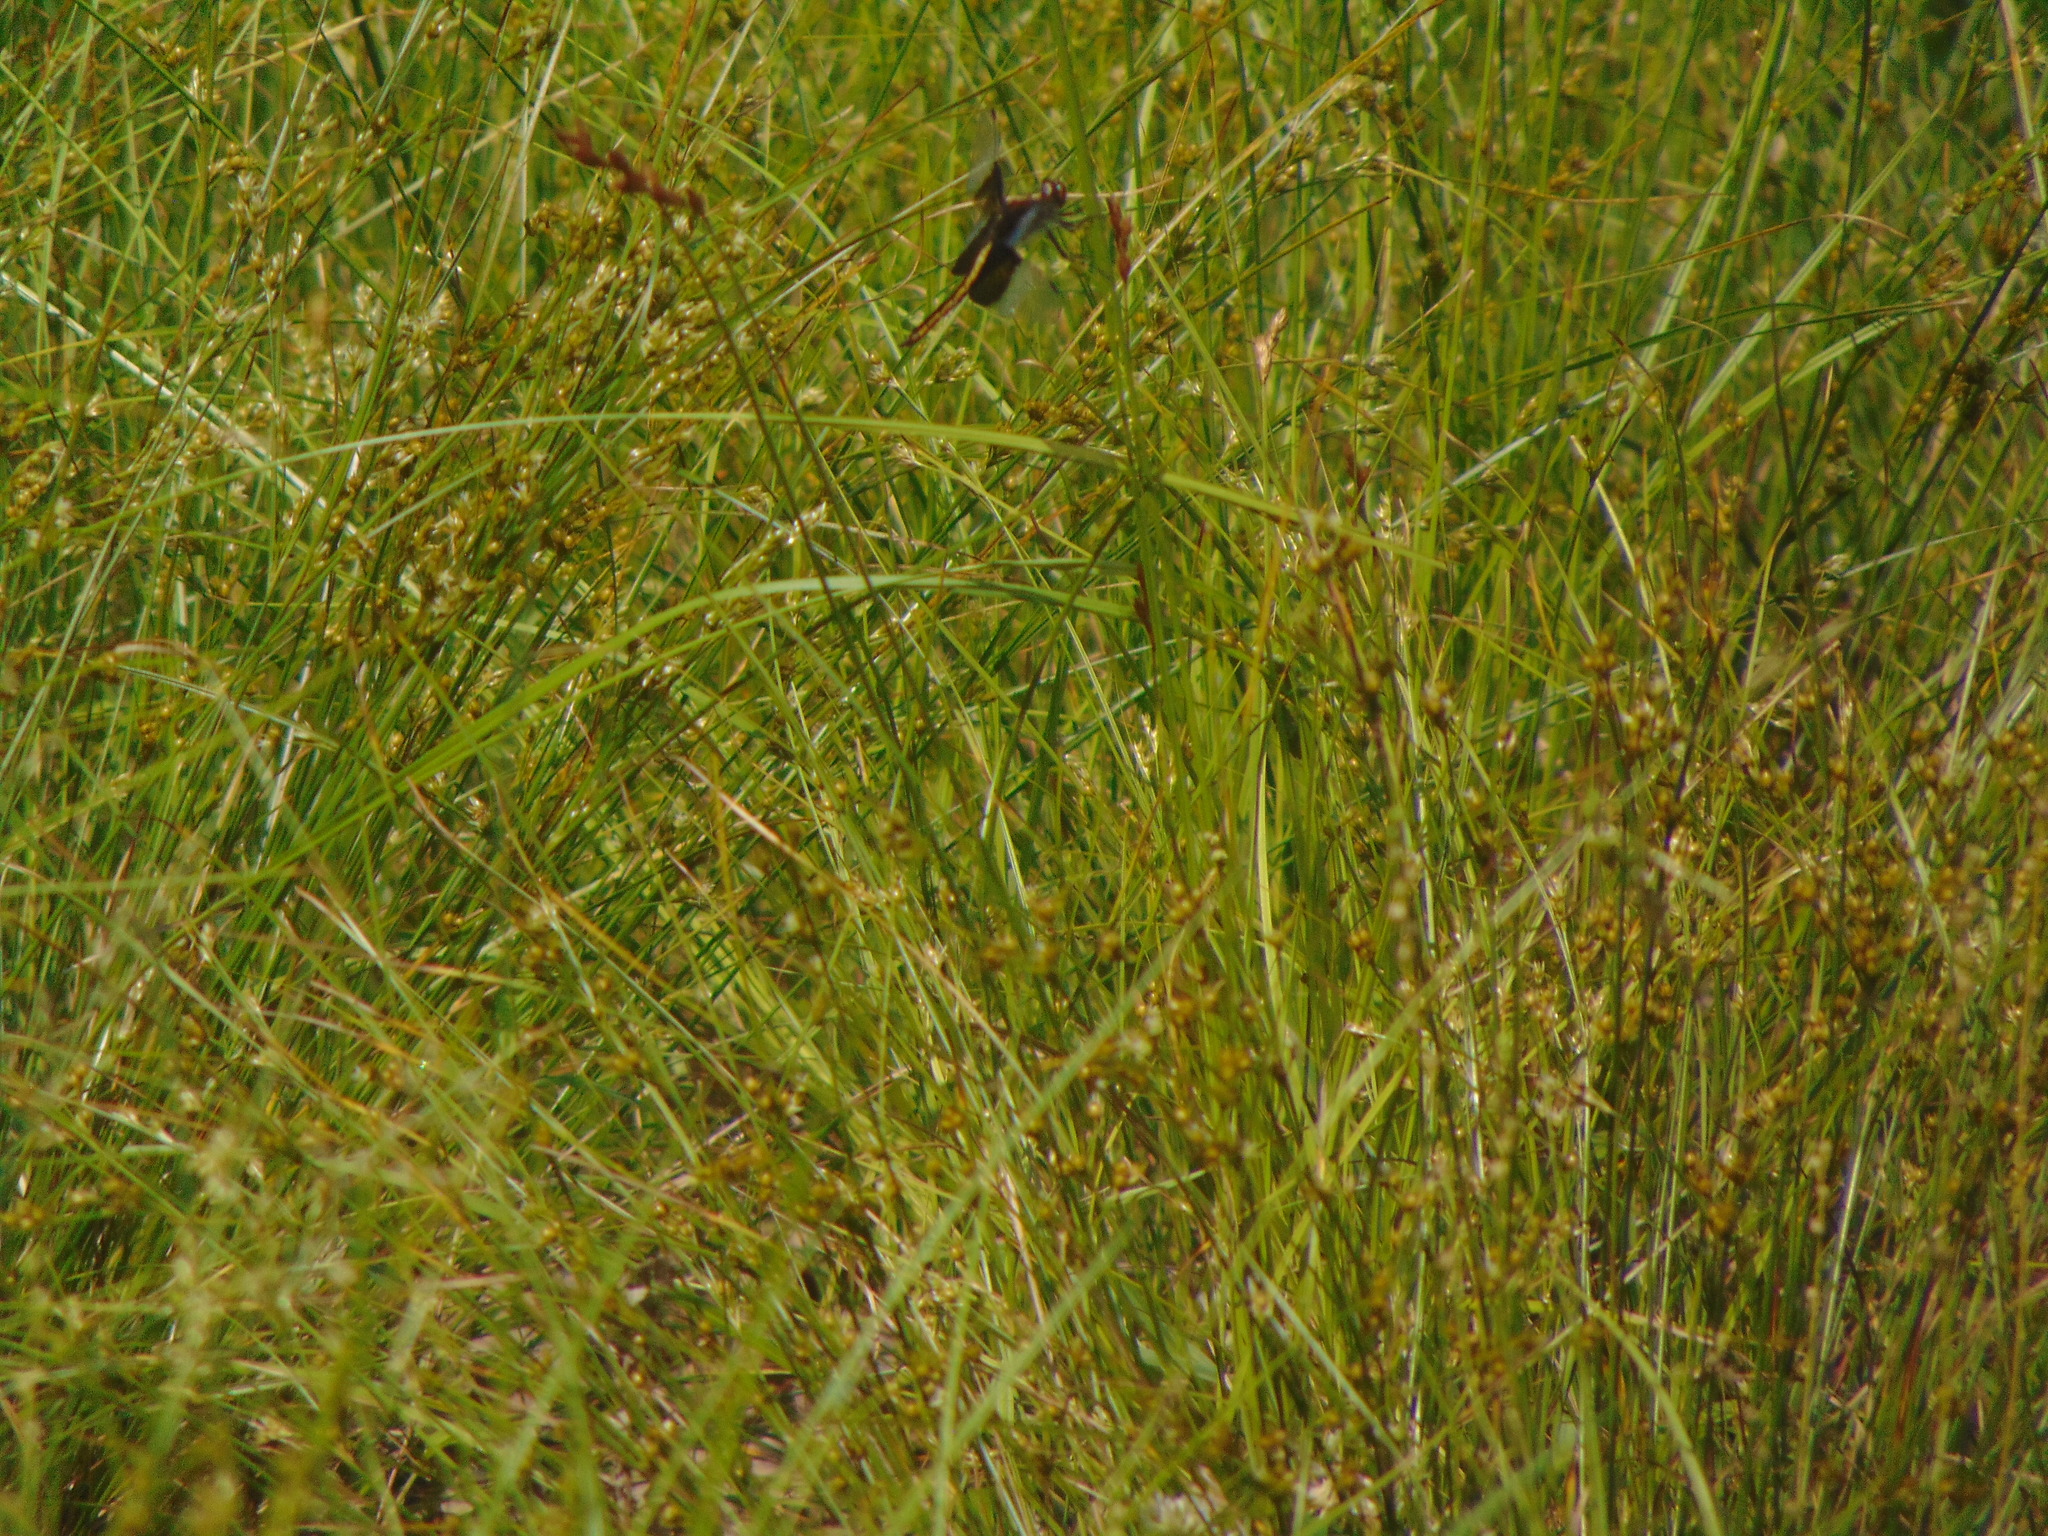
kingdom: Animalia
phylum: Arthropoda
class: Insecta
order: Odonata
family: Libellulidae
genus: Libellula
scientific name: Libellula luctuosa
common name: Widow skimmer
